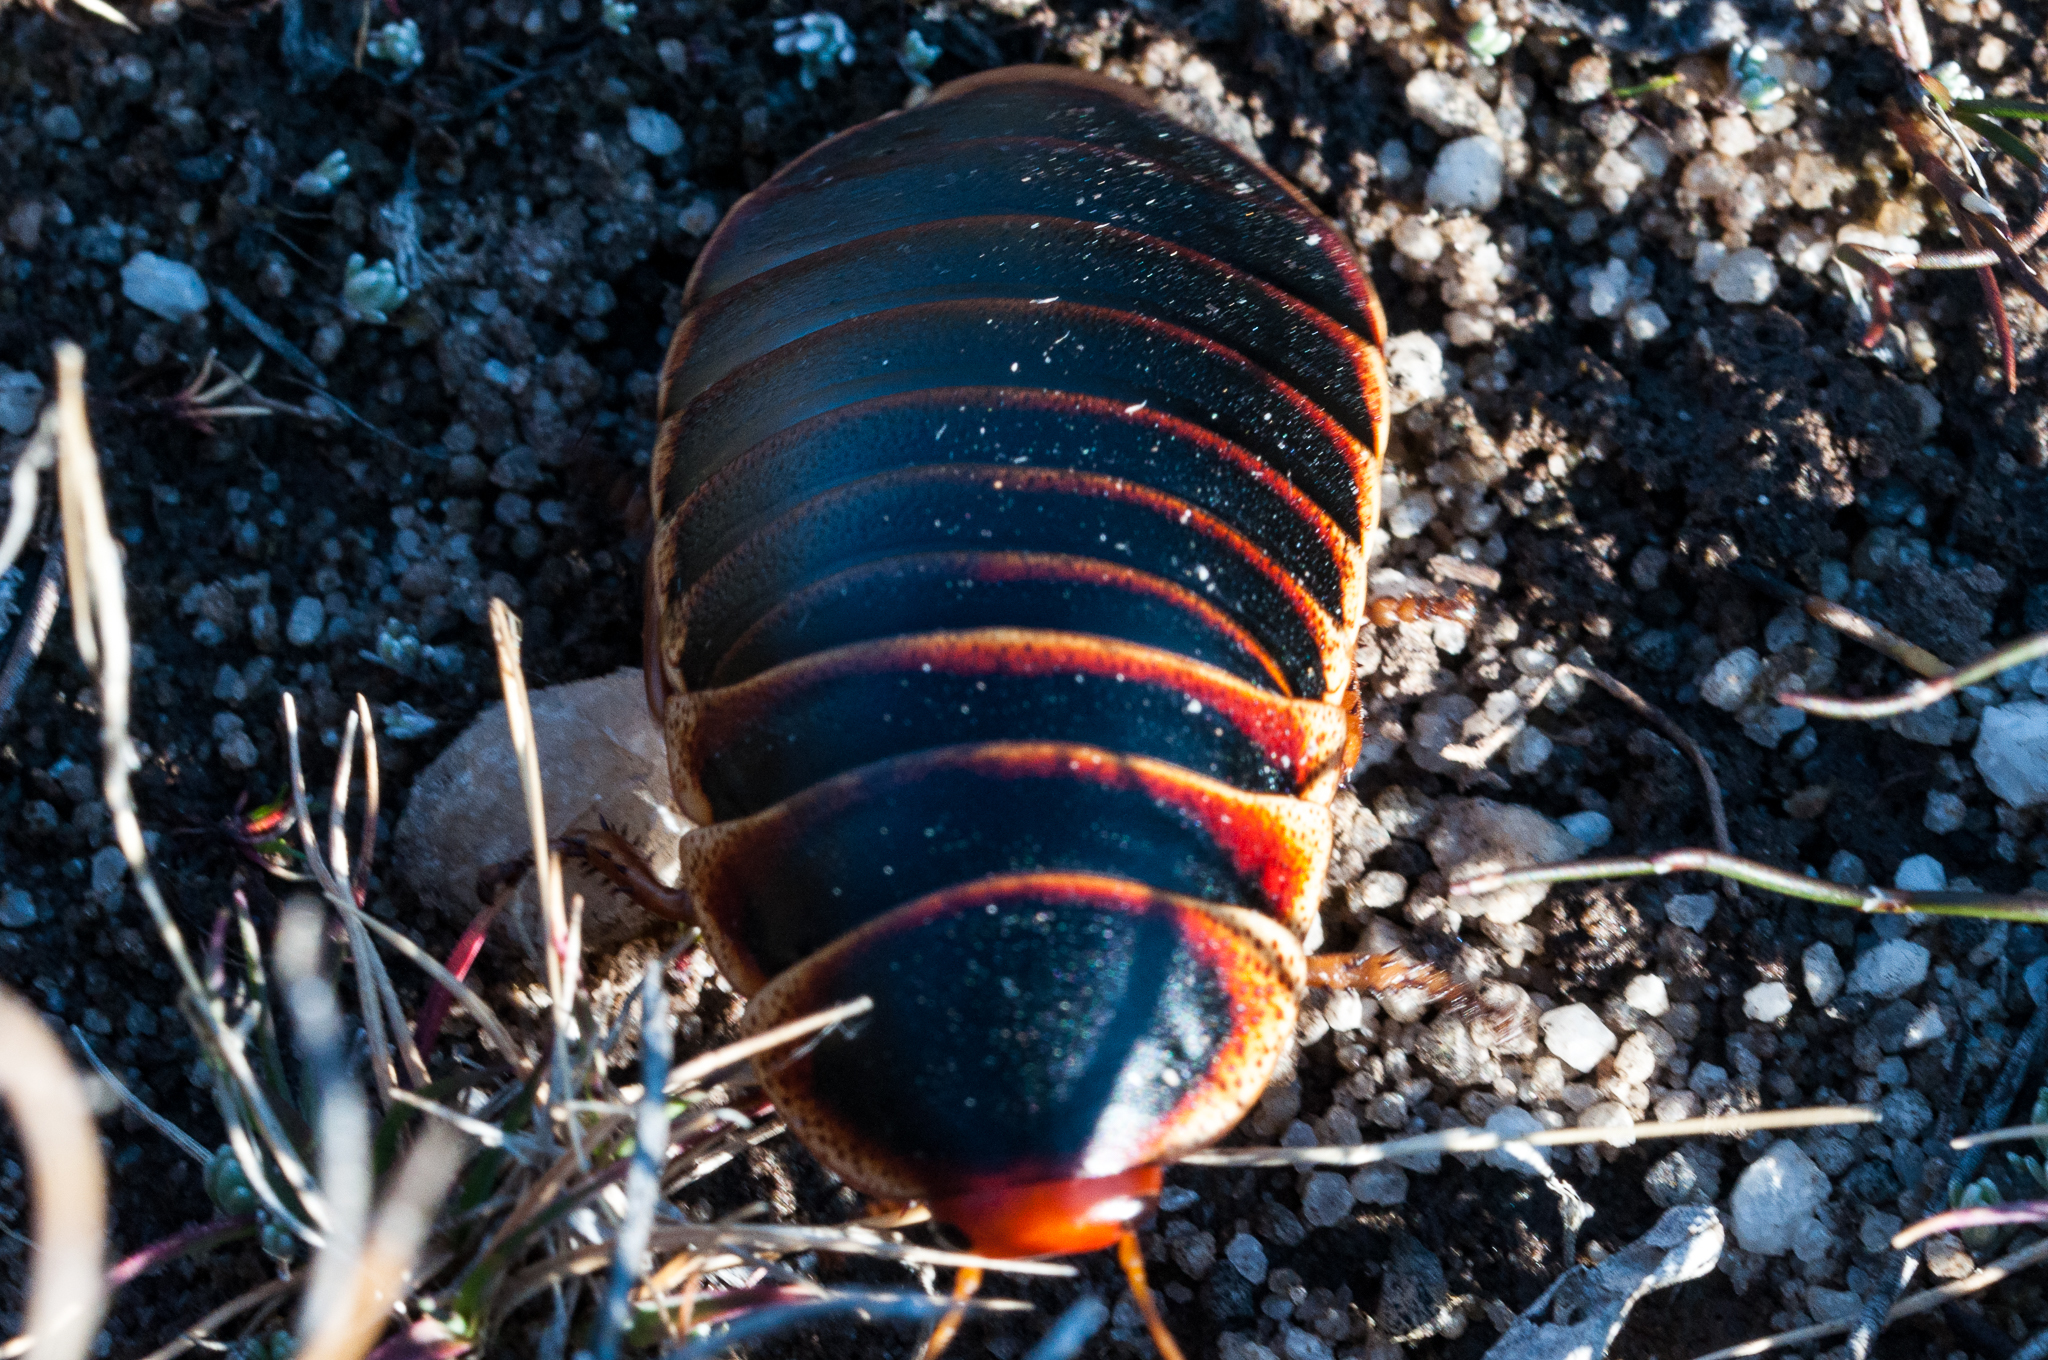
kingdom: Animalia
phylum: Arthropoda
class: Insecta
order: Blattodea
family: Blaberidae
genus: Aptera
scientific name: Aptera fusca
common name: Cape mountain cockroach
